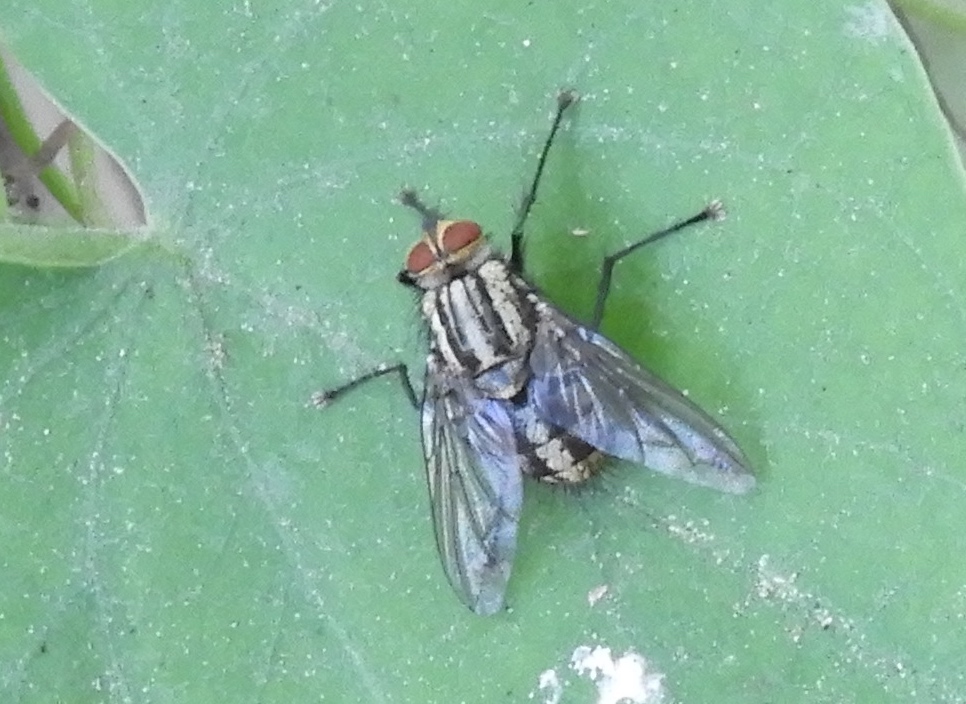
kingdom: Animalia
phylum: Arthropoda
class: Insecta
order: Diptera
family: Sarcophagidae
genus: Sarcophaga
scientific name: Sarcophaga
